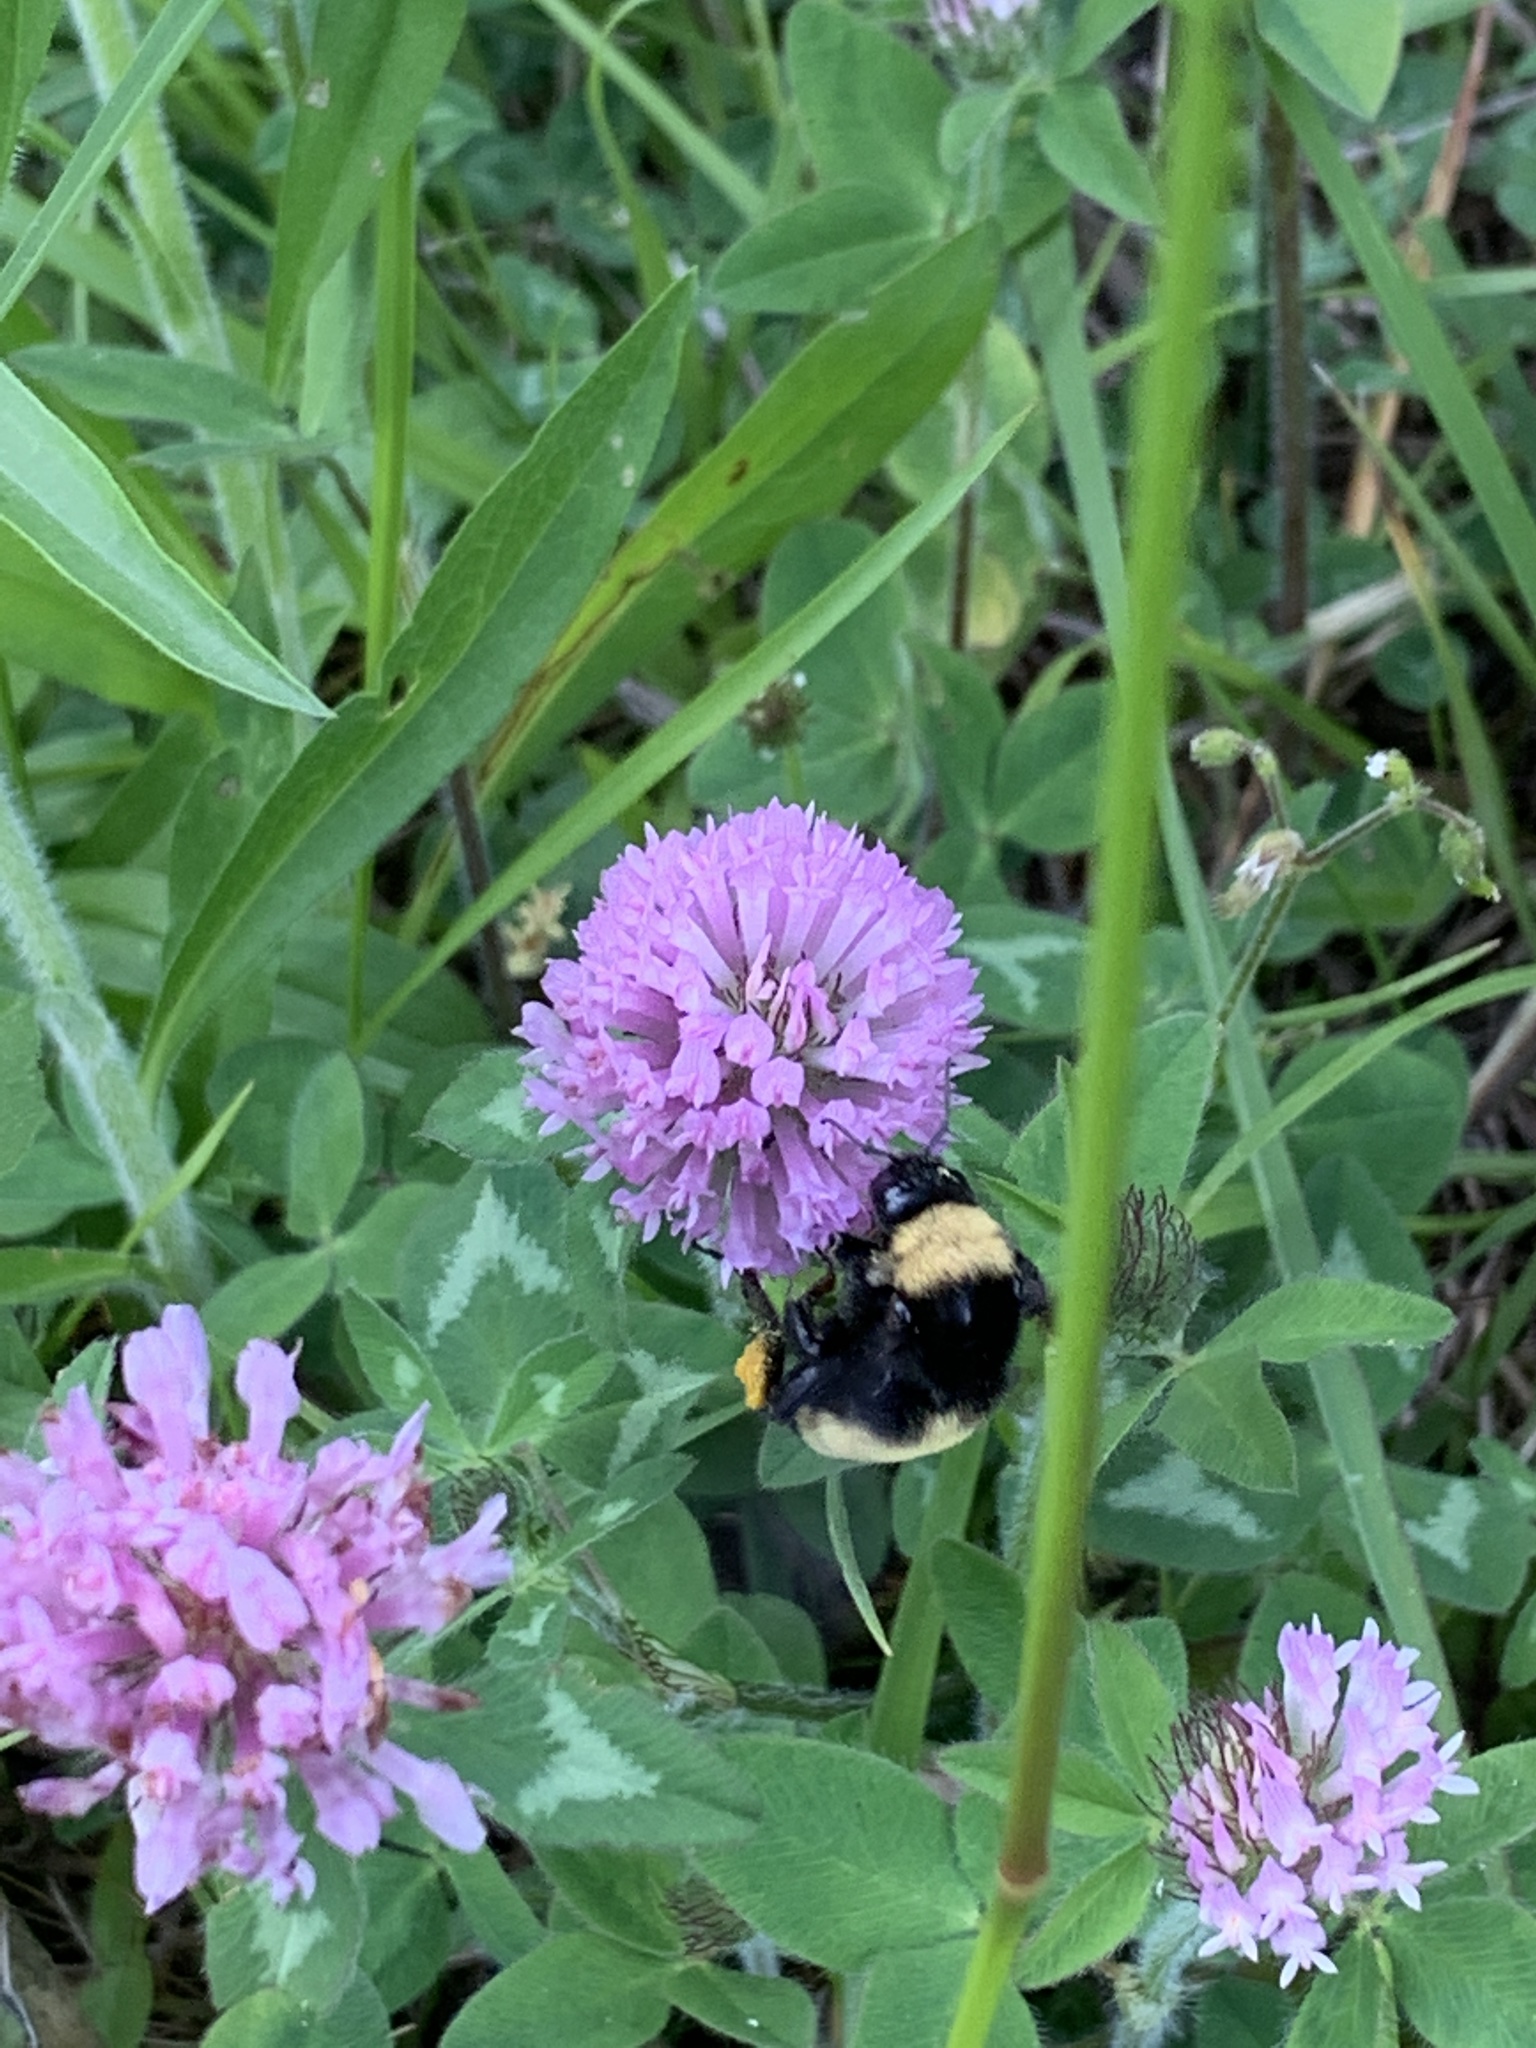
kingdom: Animalia
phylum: Arthropoda
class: Insecta
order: Hymenoptera
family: Apidae
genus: Bombus
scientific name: Bombus pensylvanicus
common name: Bumble bee
